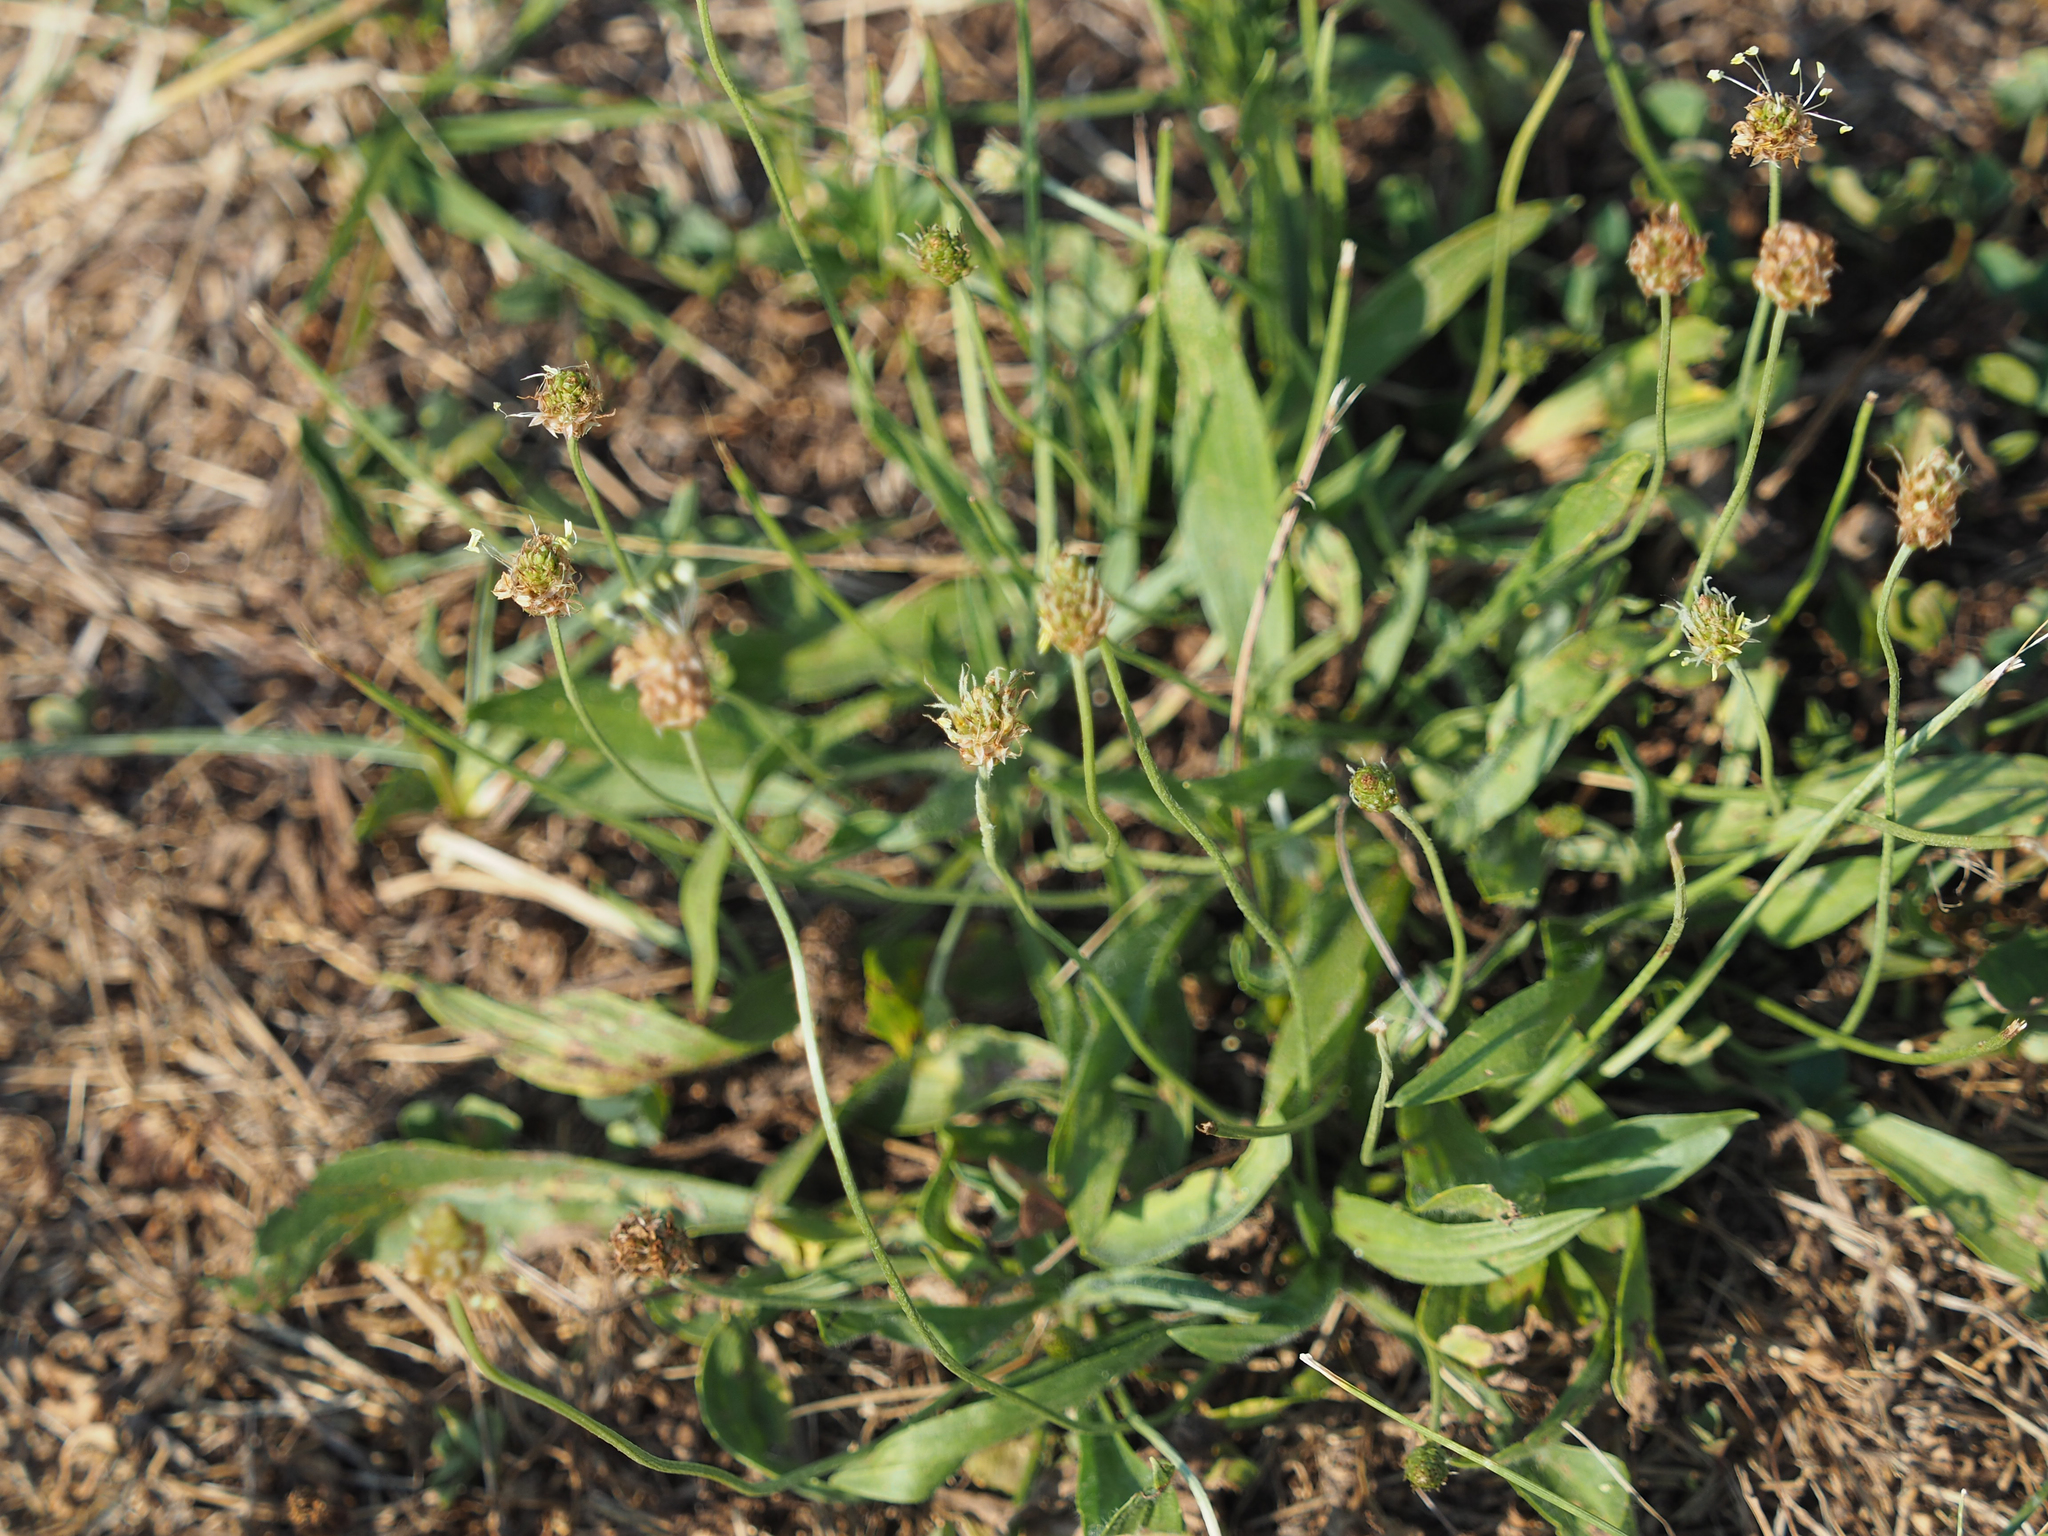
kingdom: Plantae
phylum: Tracheophyta
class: Magnoliopsida
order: Lamiales
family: Plantaginaceae
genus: Plantago
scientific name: Plantago lanceolata
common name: Ribwort plantain
